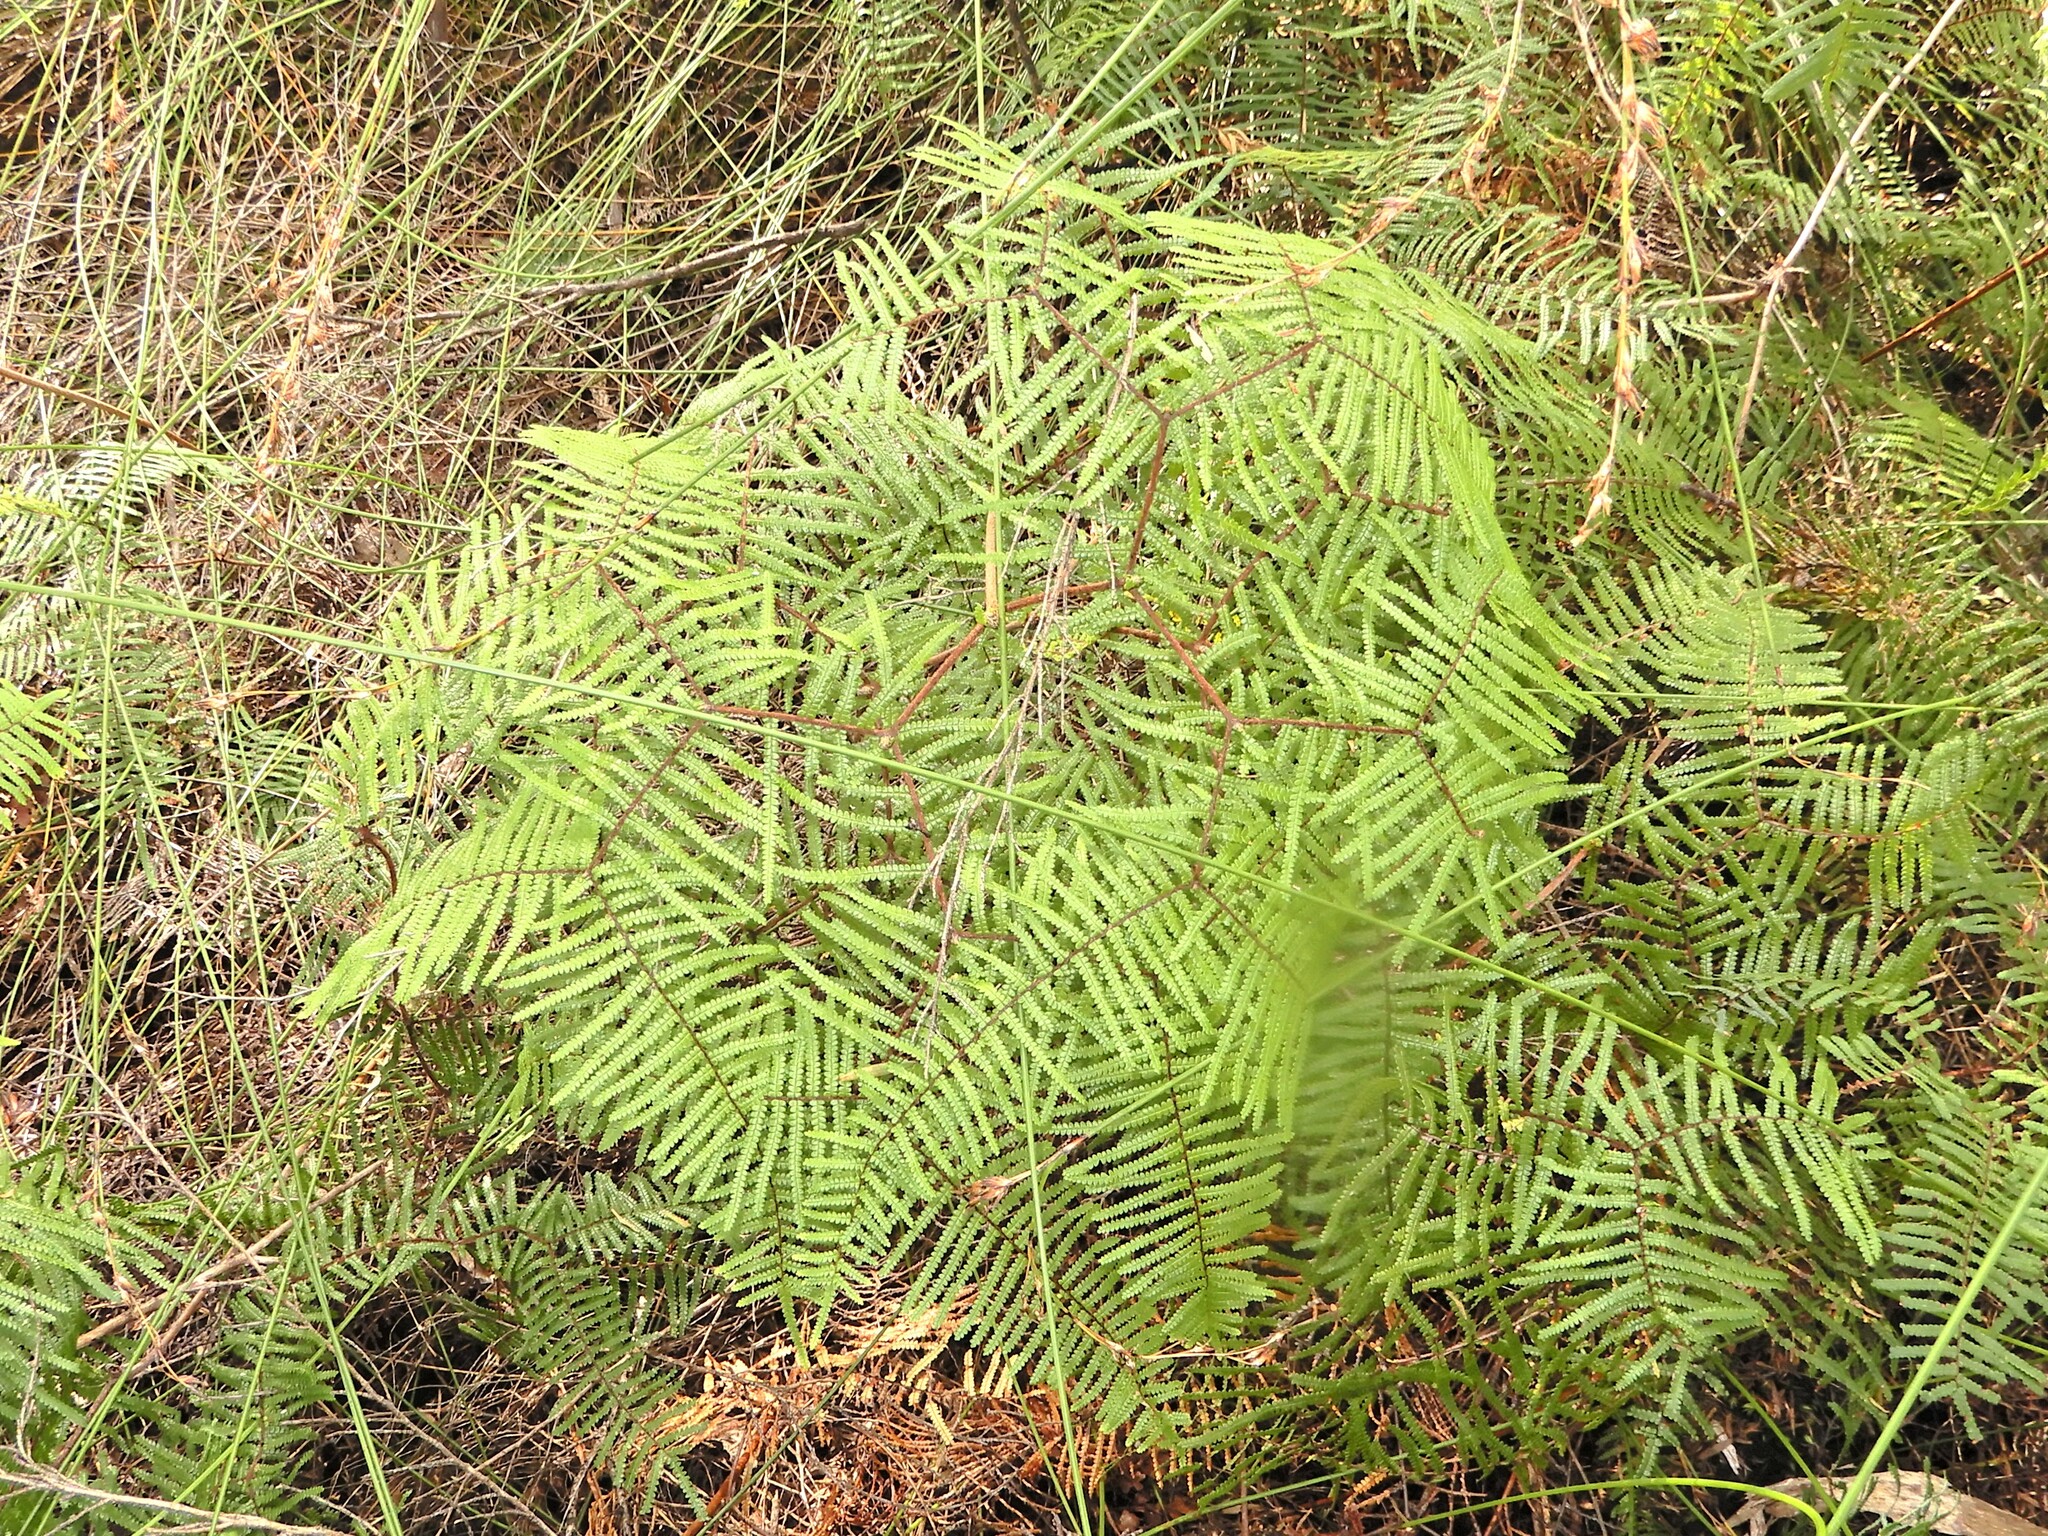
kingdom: Plantae
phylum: Tracheophyta
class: Polypodiopsida
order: Gleicheniales
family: Gleicheniaceae
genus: Gleichenia
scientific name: Gleichenia microphylla
